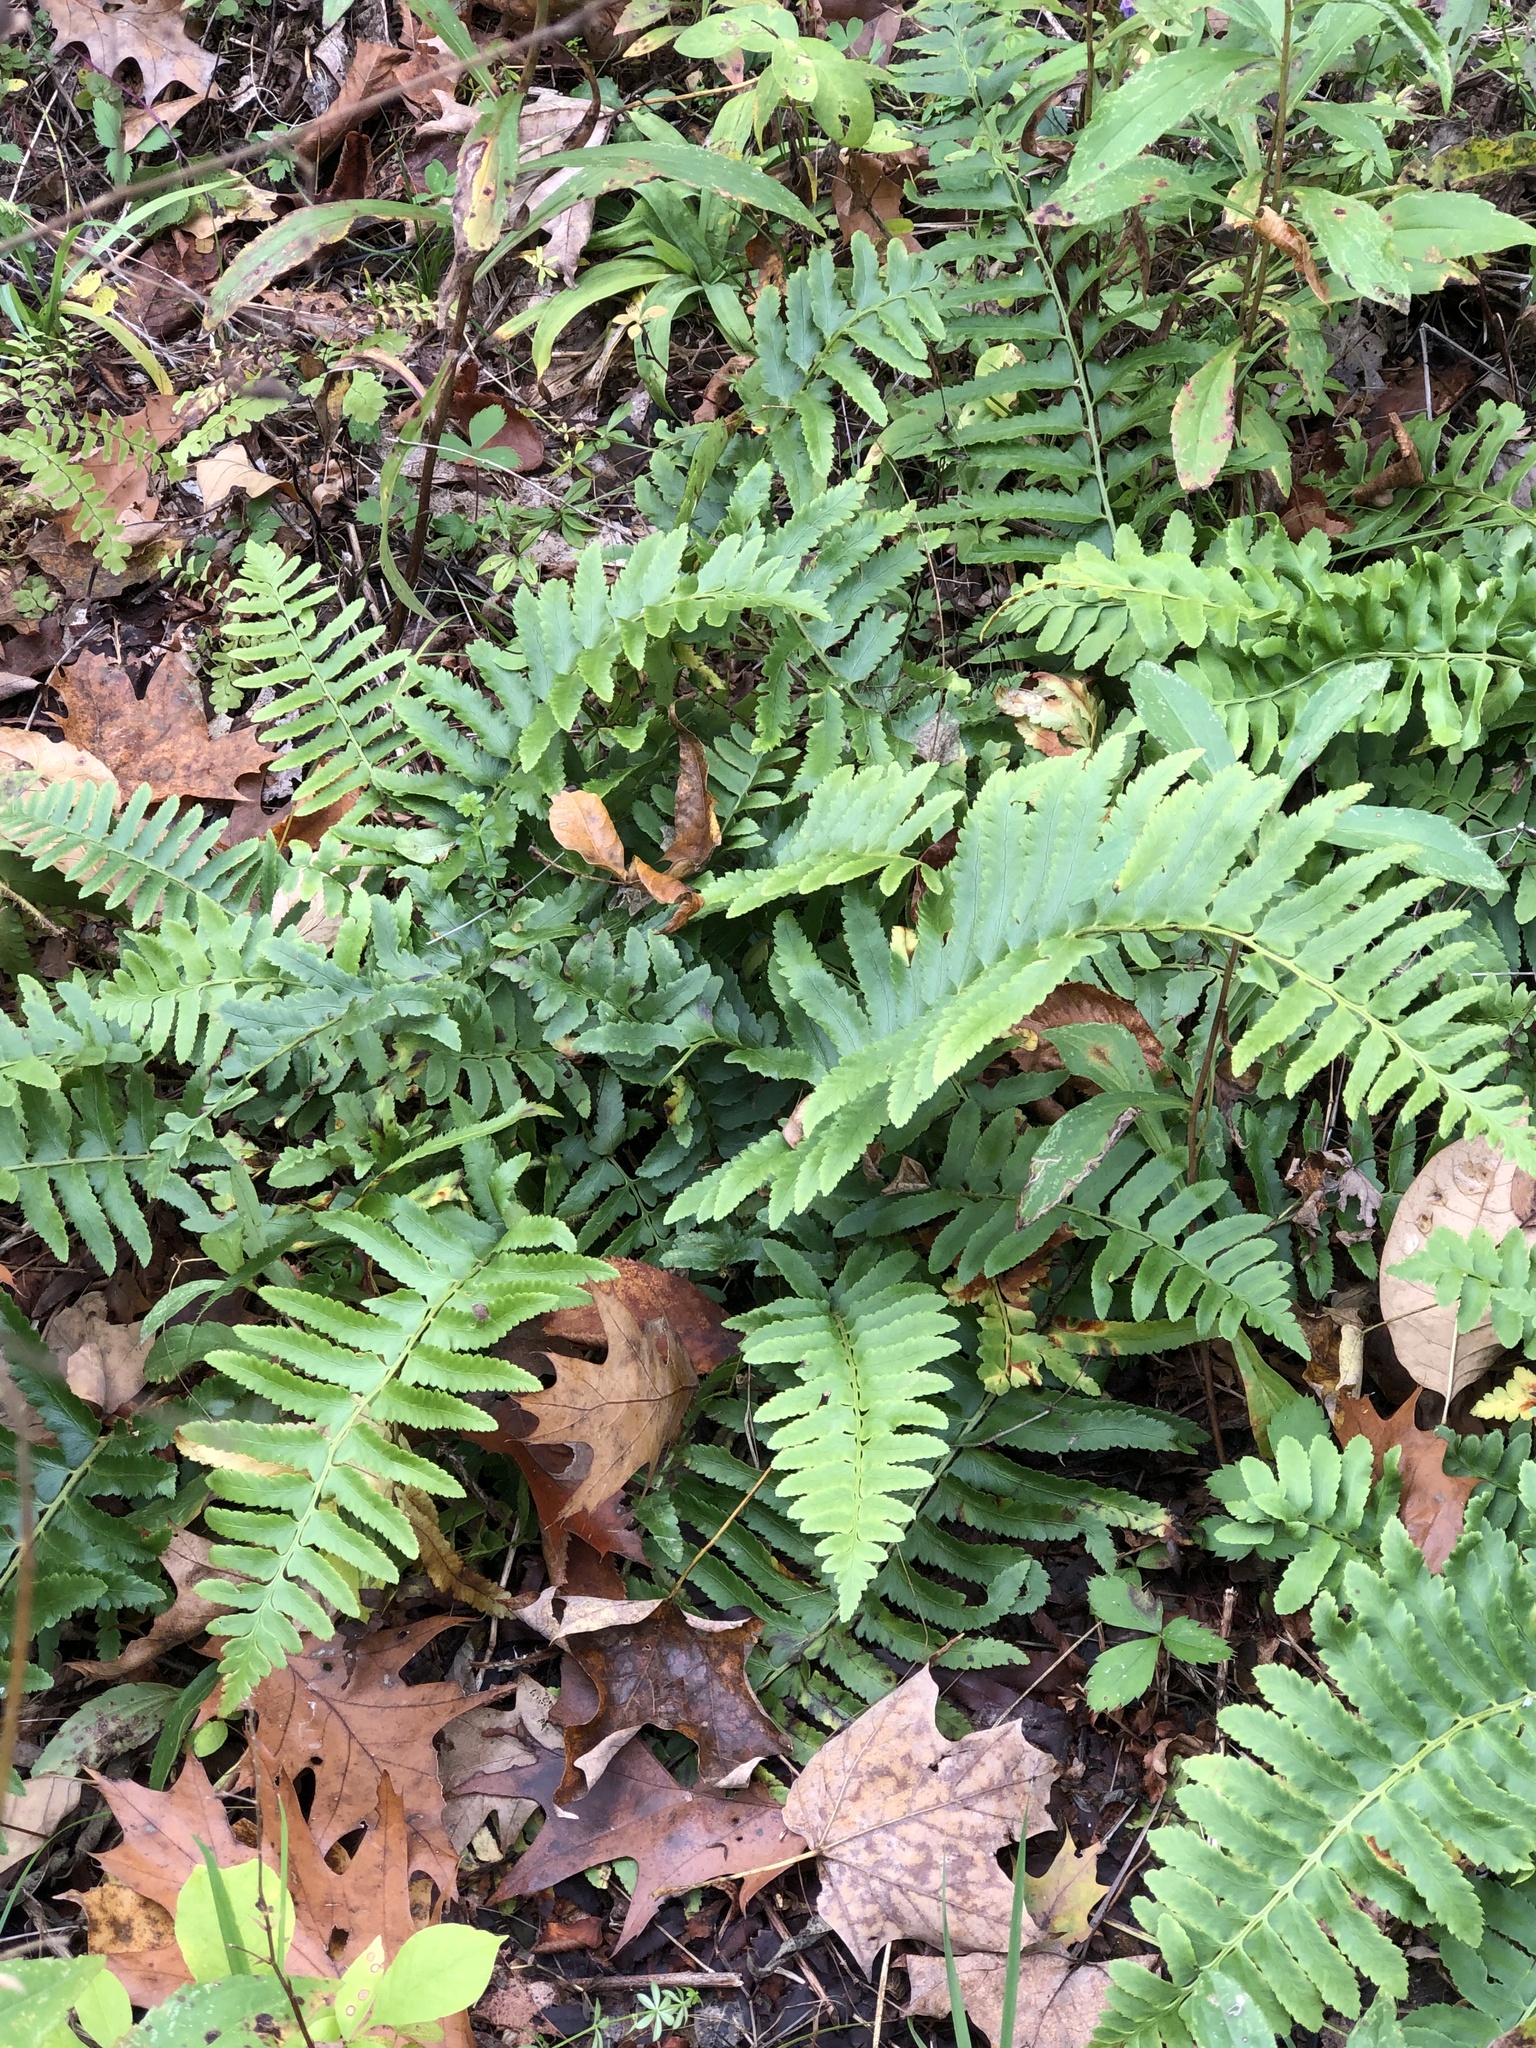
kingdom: Plantae
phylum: Tracheophyta
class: Polypodiopsida
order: Polypodiales
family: Dryopteridaceae
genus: Polystichum
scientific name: Polystichum acrostichoides
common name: Christmas fern
